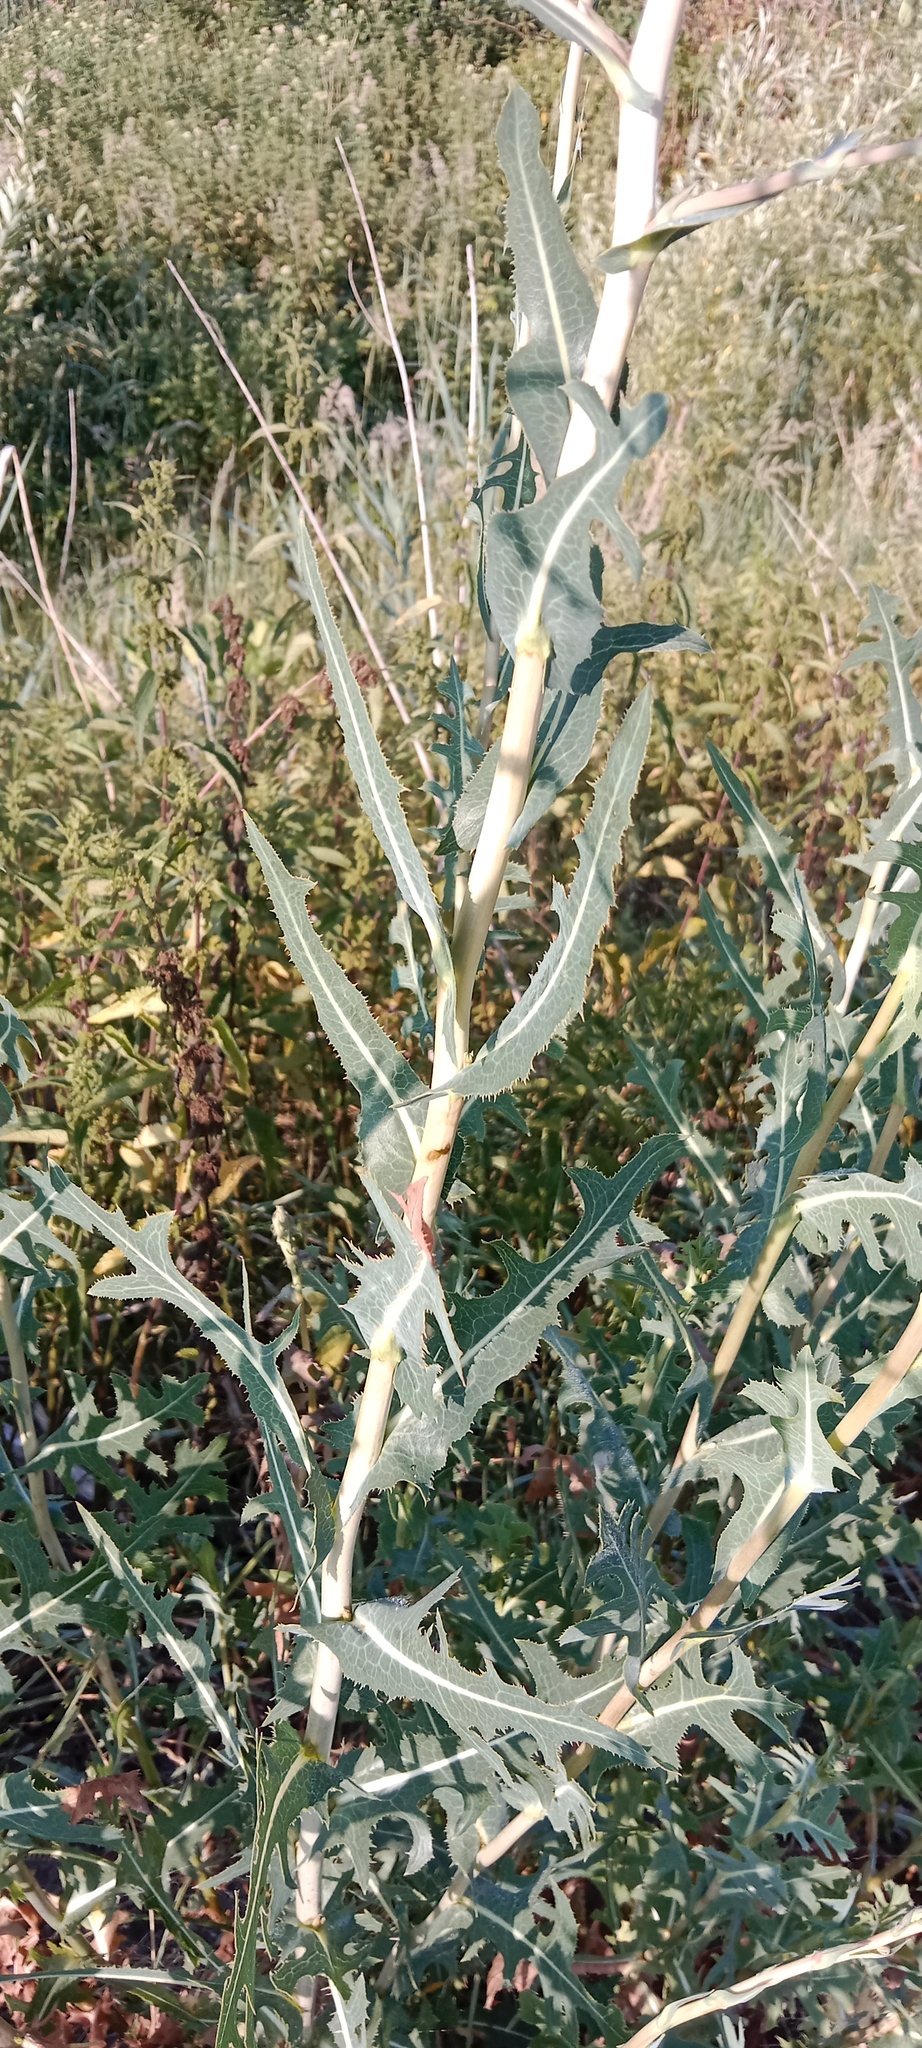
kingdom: Plantae
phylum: Tracheophyta
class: Magnoliopsida
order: Asterales
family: Asteraceae
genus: Lactuca
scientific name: Lactuca serriola
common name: Prickly lettuce
